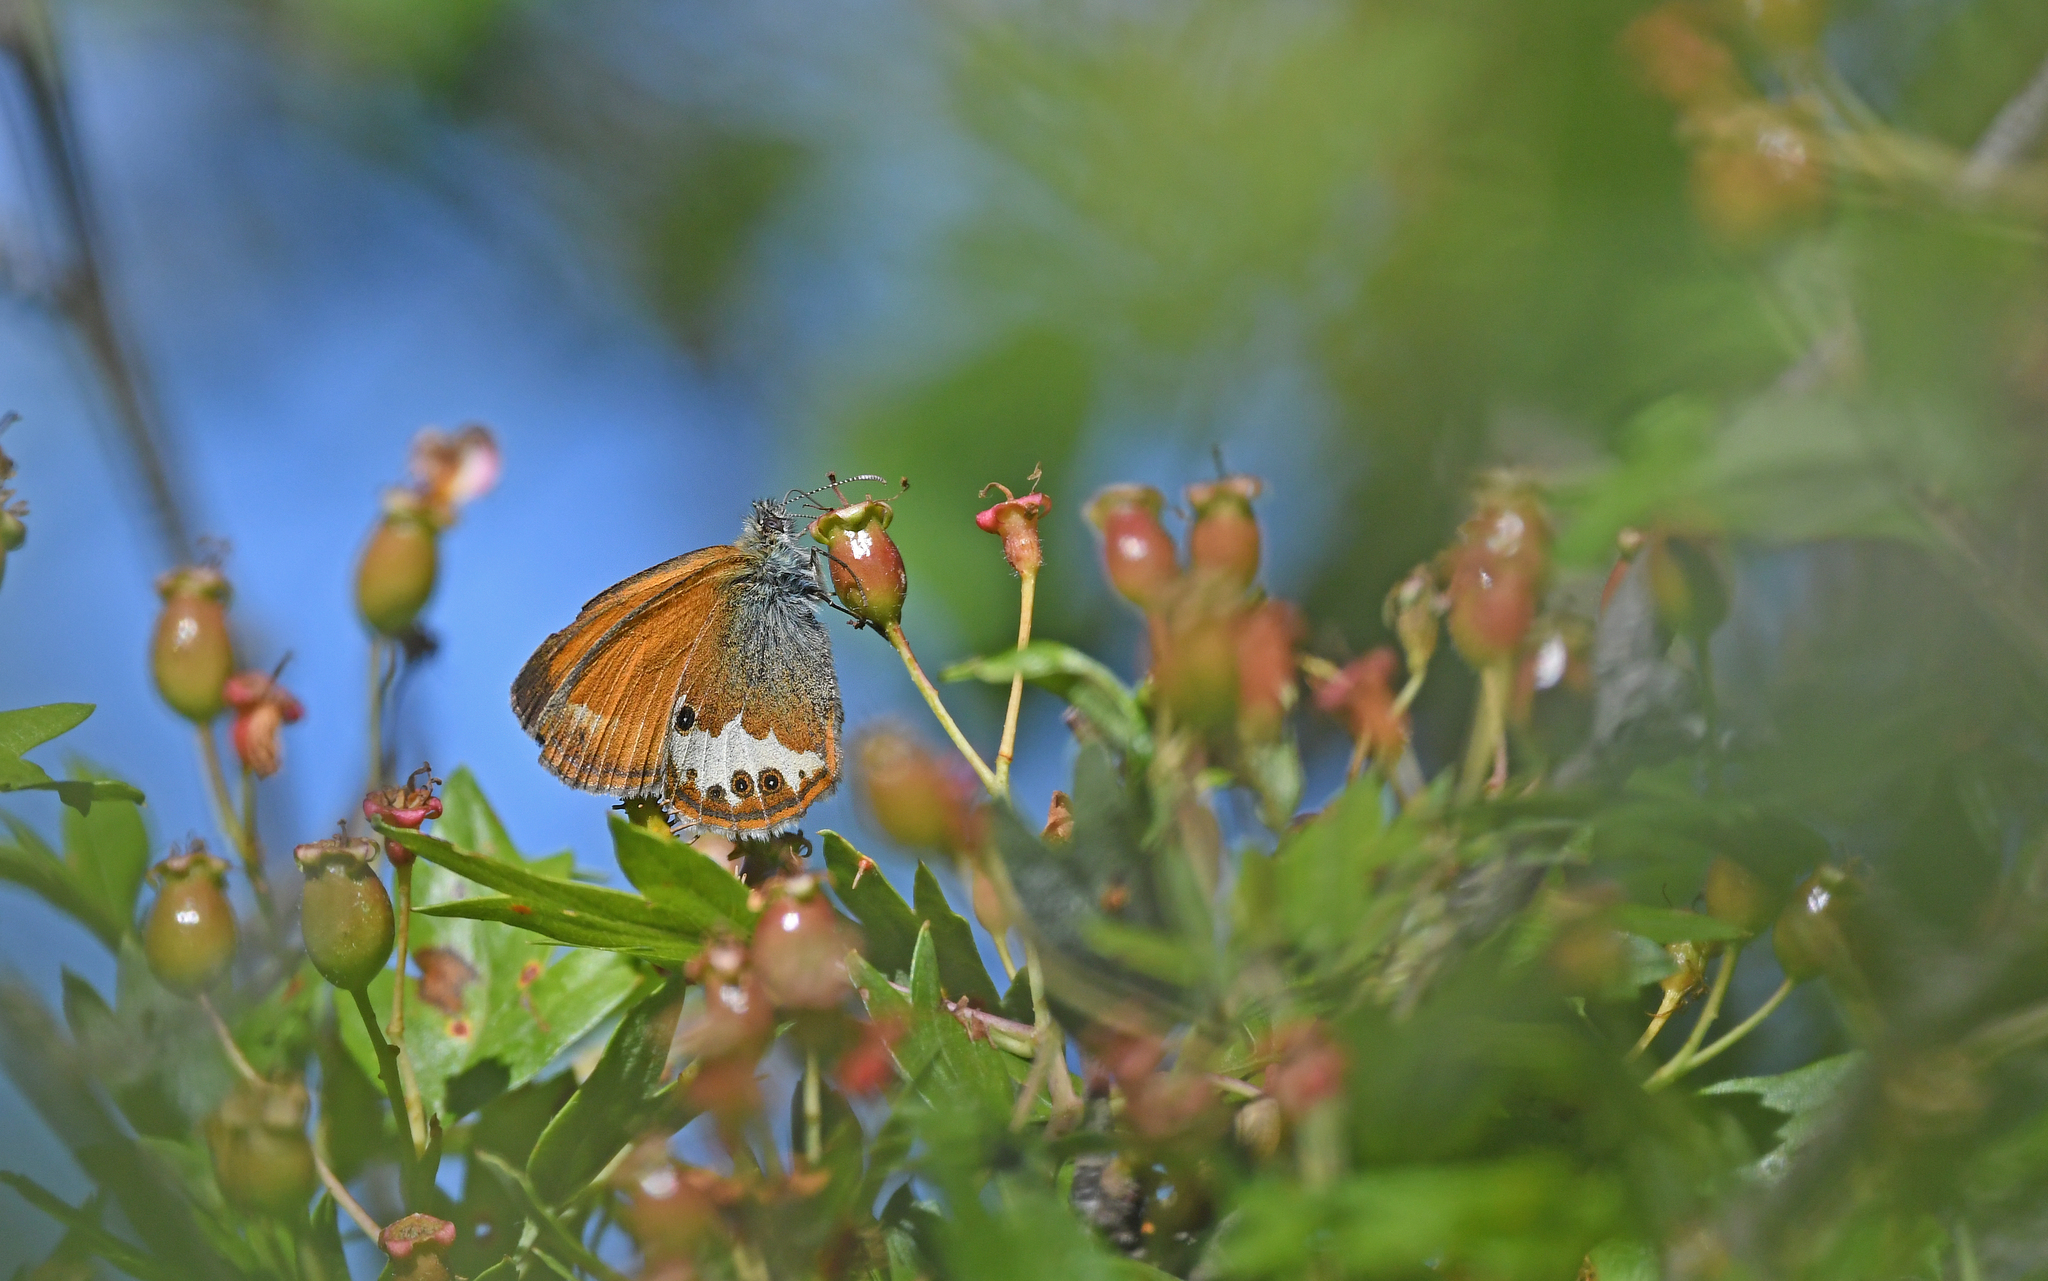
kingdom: Animalia
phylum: Arthropoda
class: Insecta
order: Lepidoptera
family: Nymphalidae
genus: Coenonympha
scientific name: Coenonympha arcania
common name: Pearly heath
